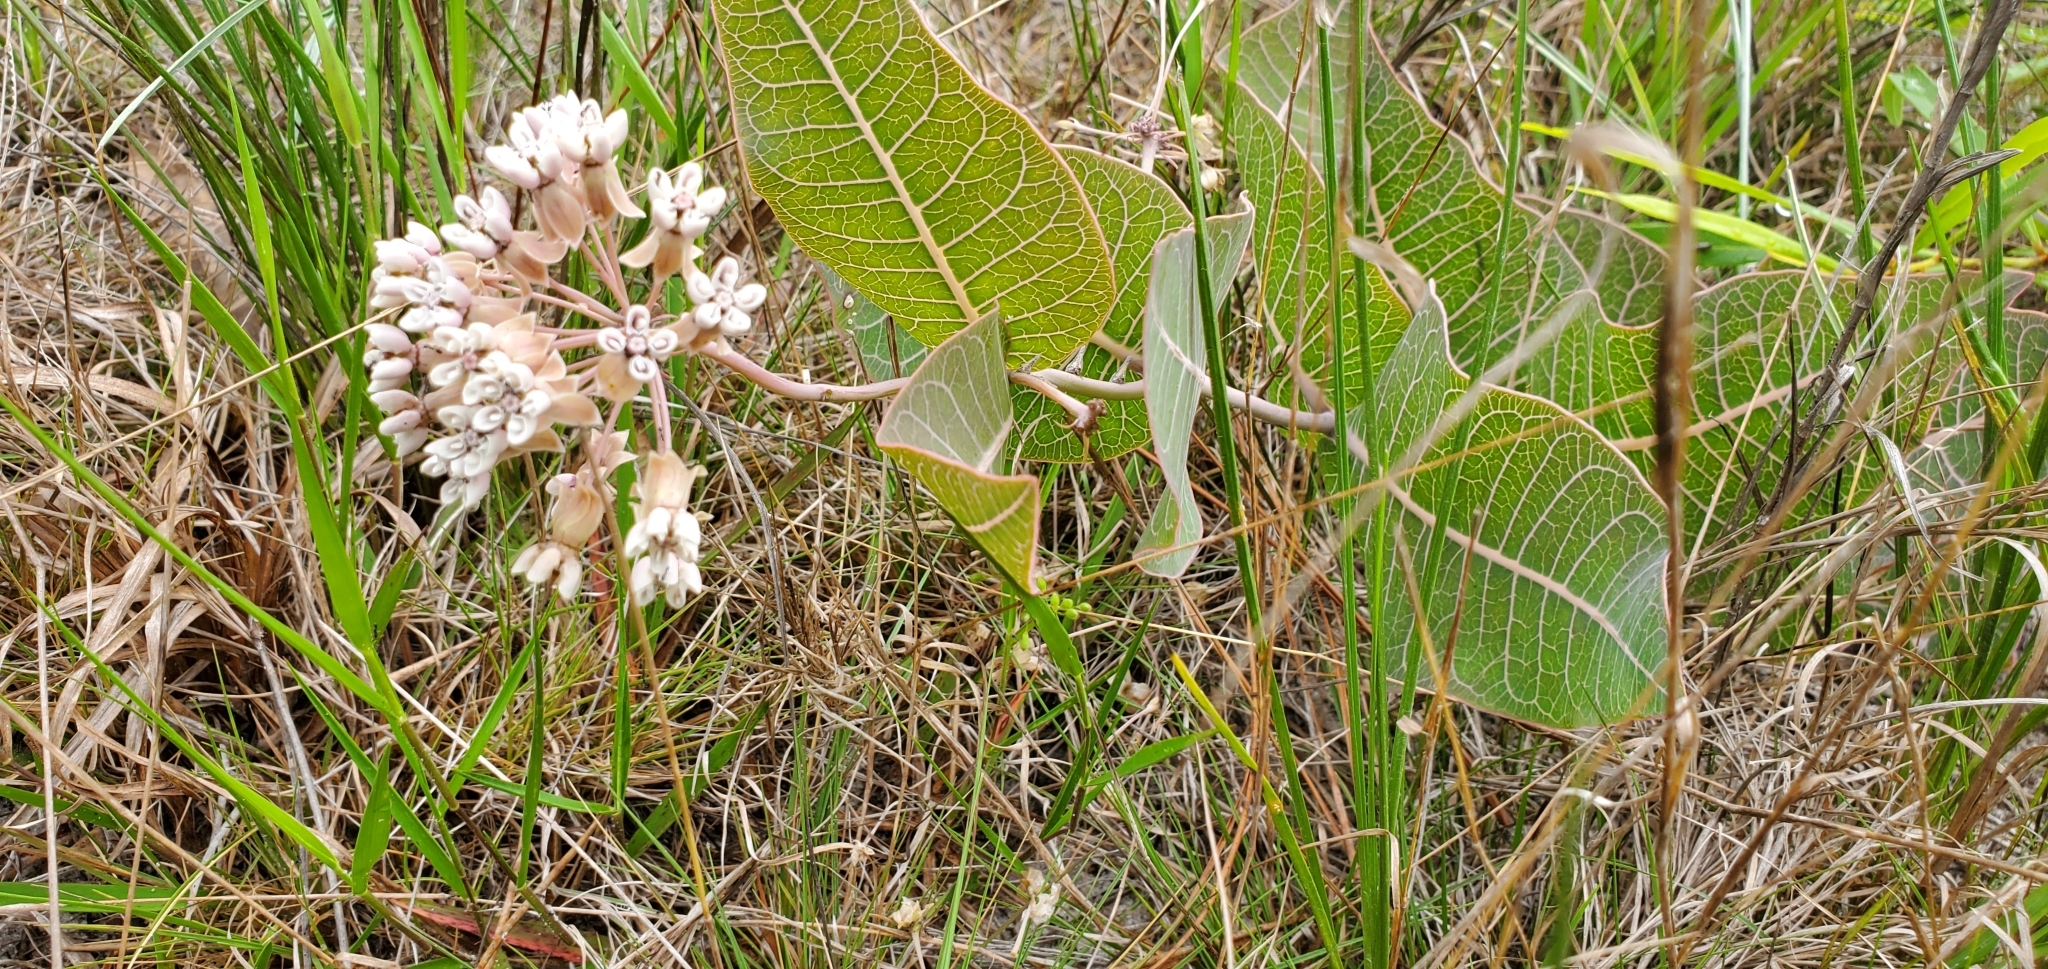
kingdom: Plantae
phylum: Tracheophyta
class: Magnoliopsida
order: Gentianales
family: Apocynaceae
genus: Asclepias
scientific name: Asclepias humistrata
